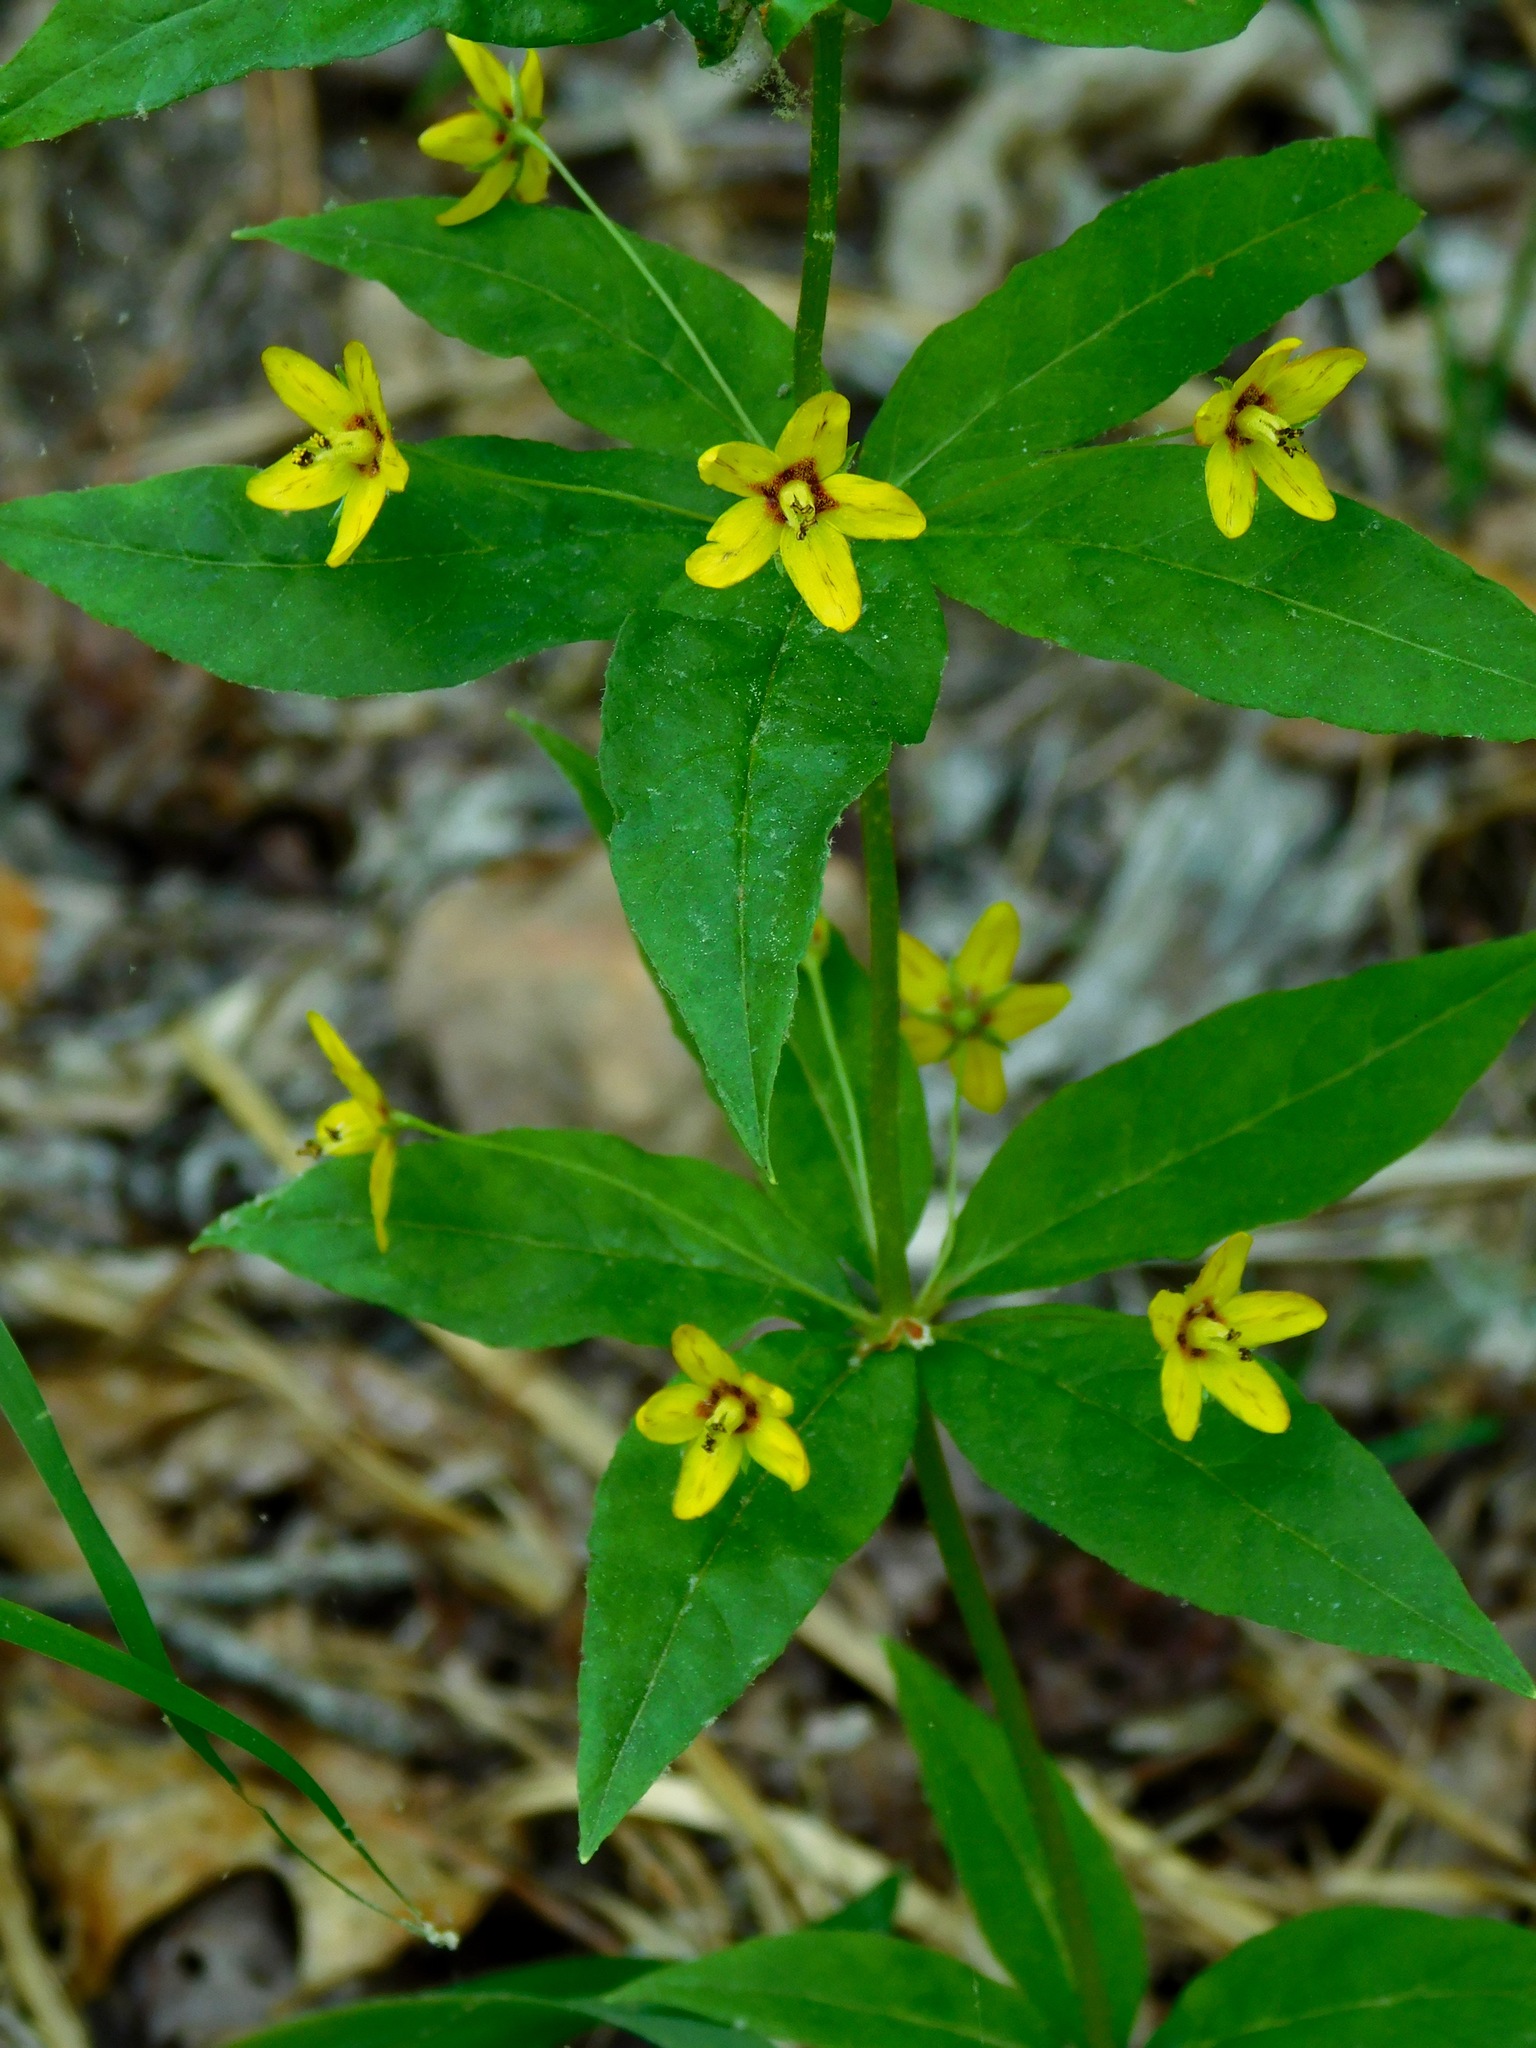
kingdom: Plantae
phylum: Tracheophyta
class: Magnoliopsida
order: Ericales
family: Primulaceae
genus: Lysimachia
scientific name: Lysimachia quadrifolia
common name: Whorled loosestrife
